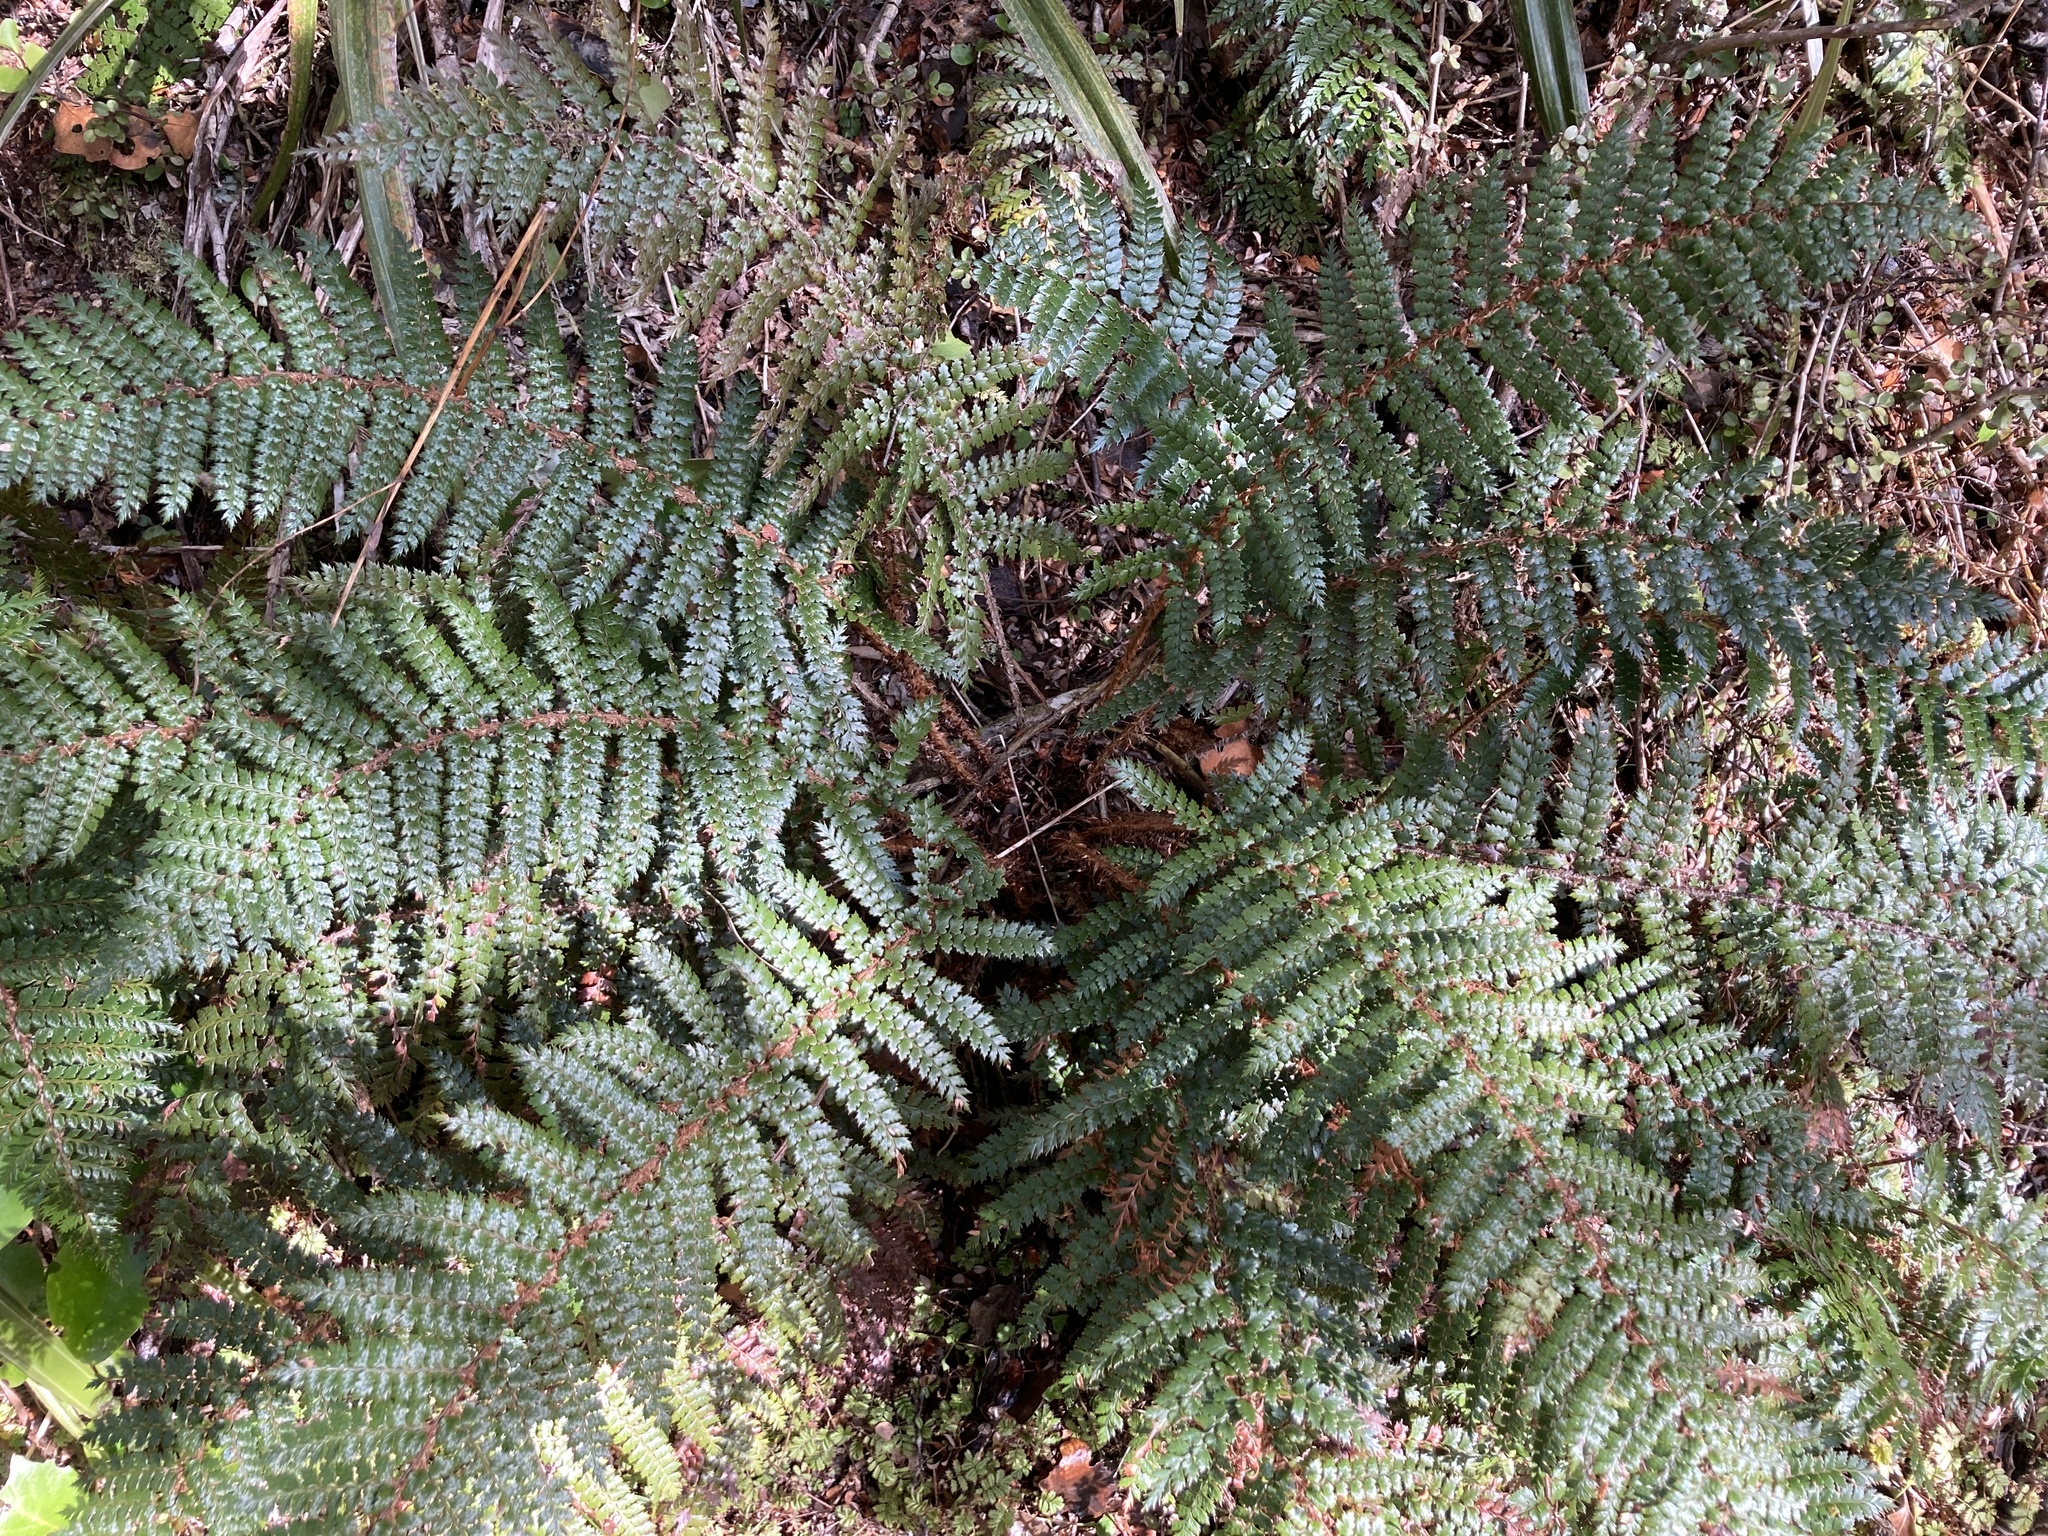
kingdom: Plantae
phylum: Tracheophyta
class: Polypodiopsida
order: Polypodiales
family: Dryopteridaceae
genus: Polystichum
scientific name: Polystichum vestitum
